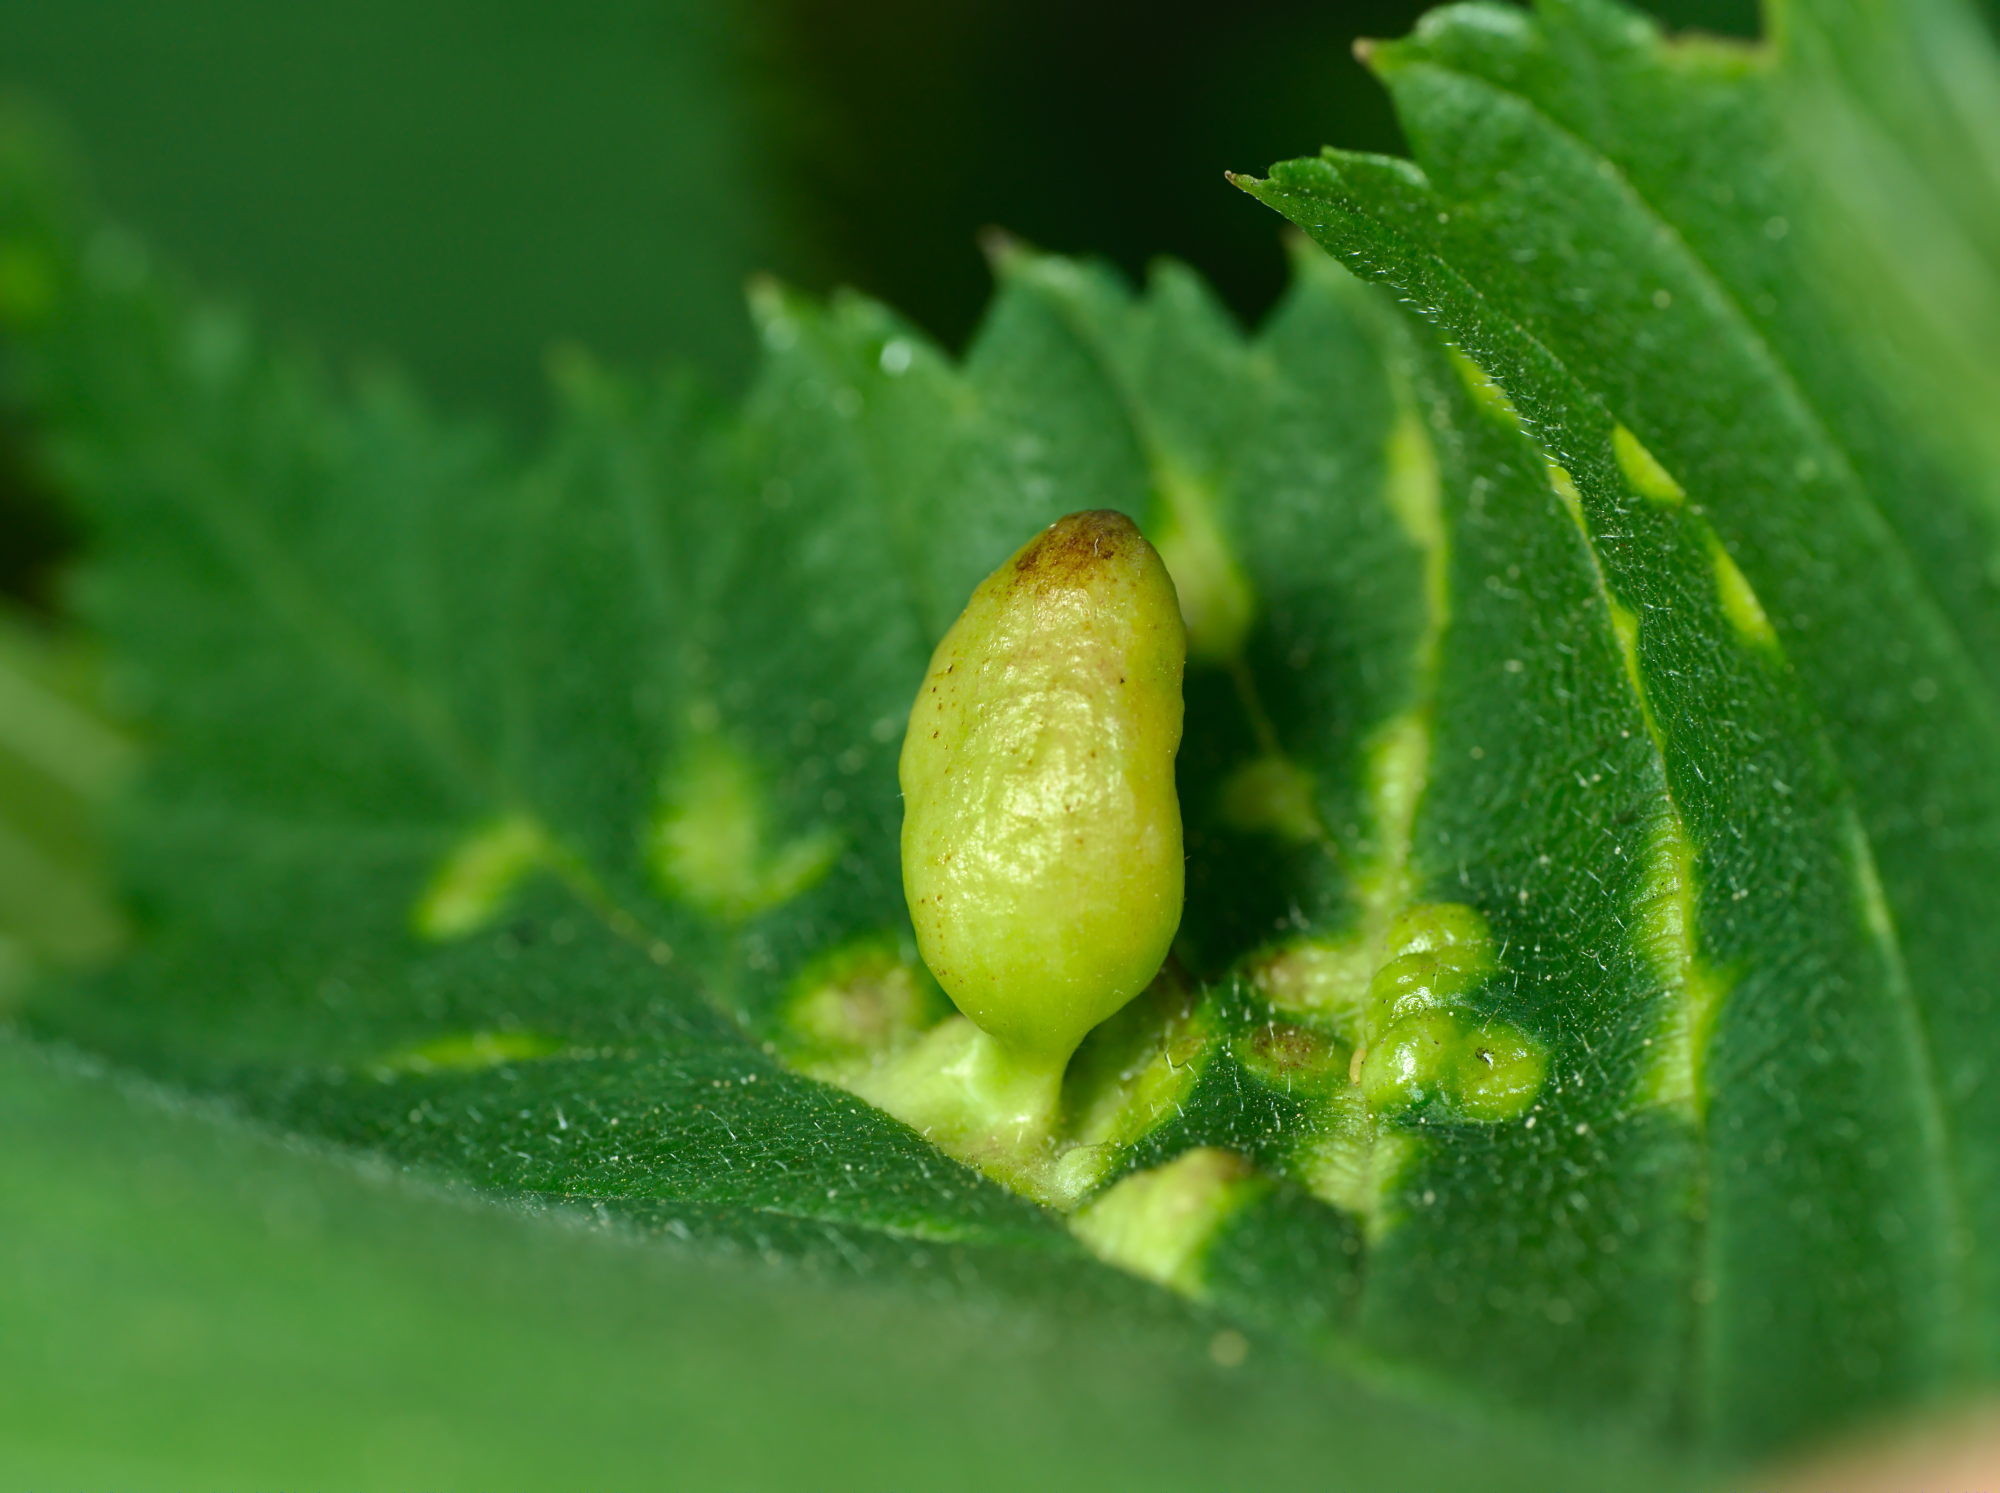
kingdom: Animalia
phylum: Arthropoda
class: Insecta
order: Hemiptera
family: Aphididae
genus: Tetraneura
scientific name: Tetraneura ulmi
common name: Aphid
